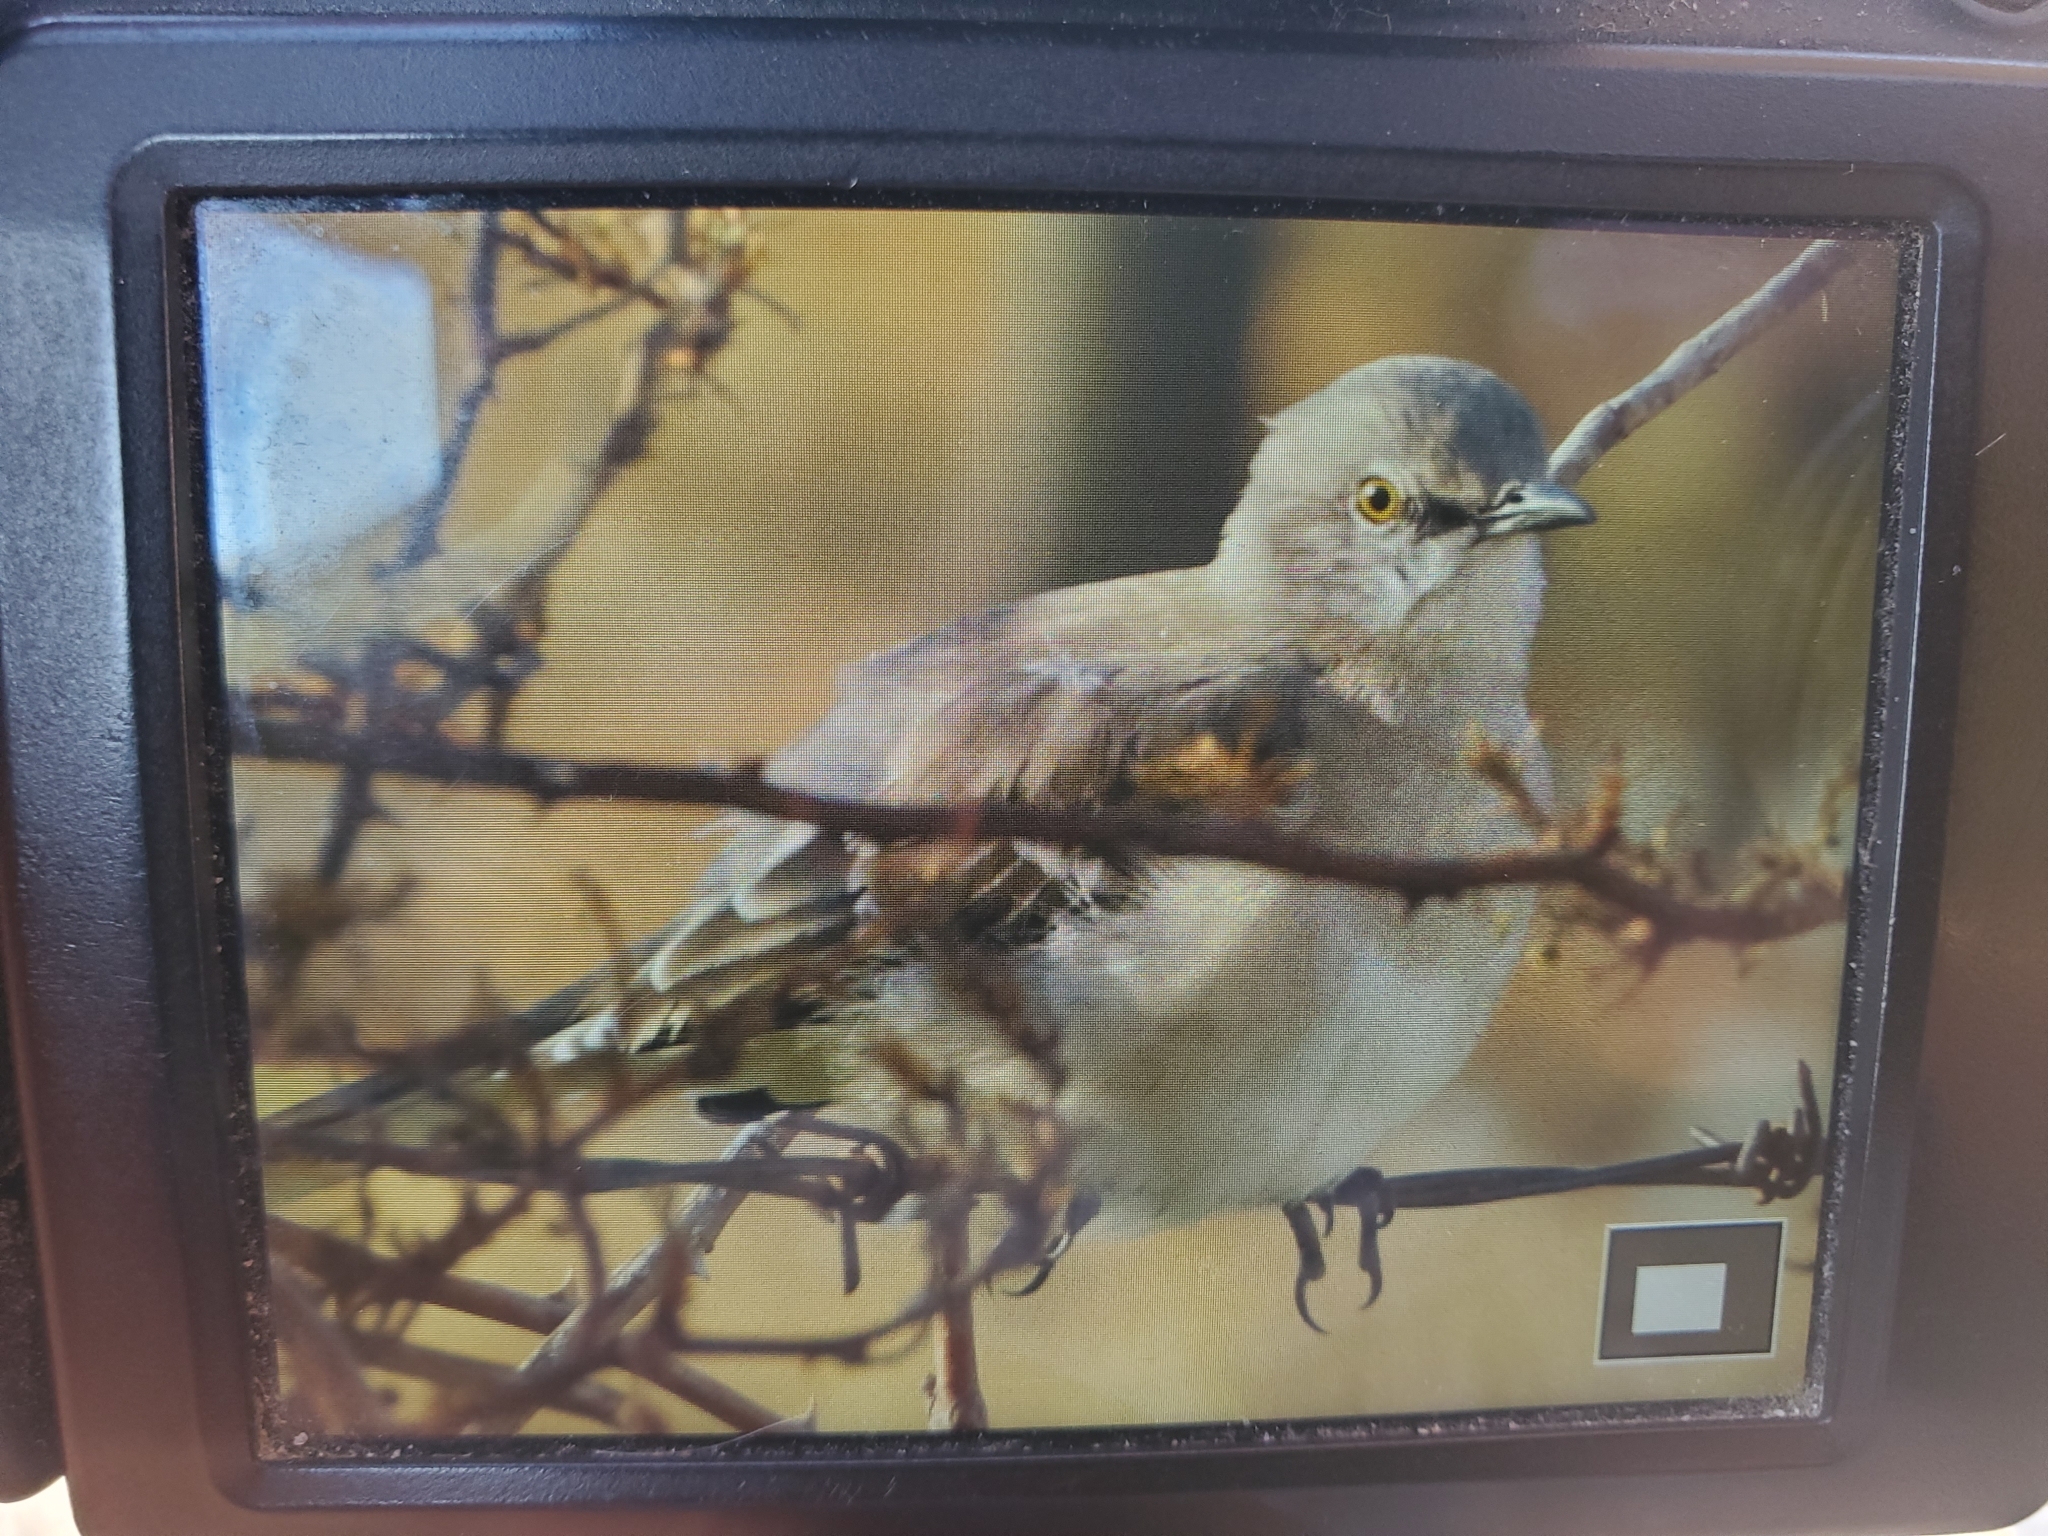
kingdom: Animalia
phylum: Chordata
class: Aves
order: Passeriformes
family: Mimidae
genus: Mimus
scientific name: Mimus polyglottos
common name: Northern mockingbird
